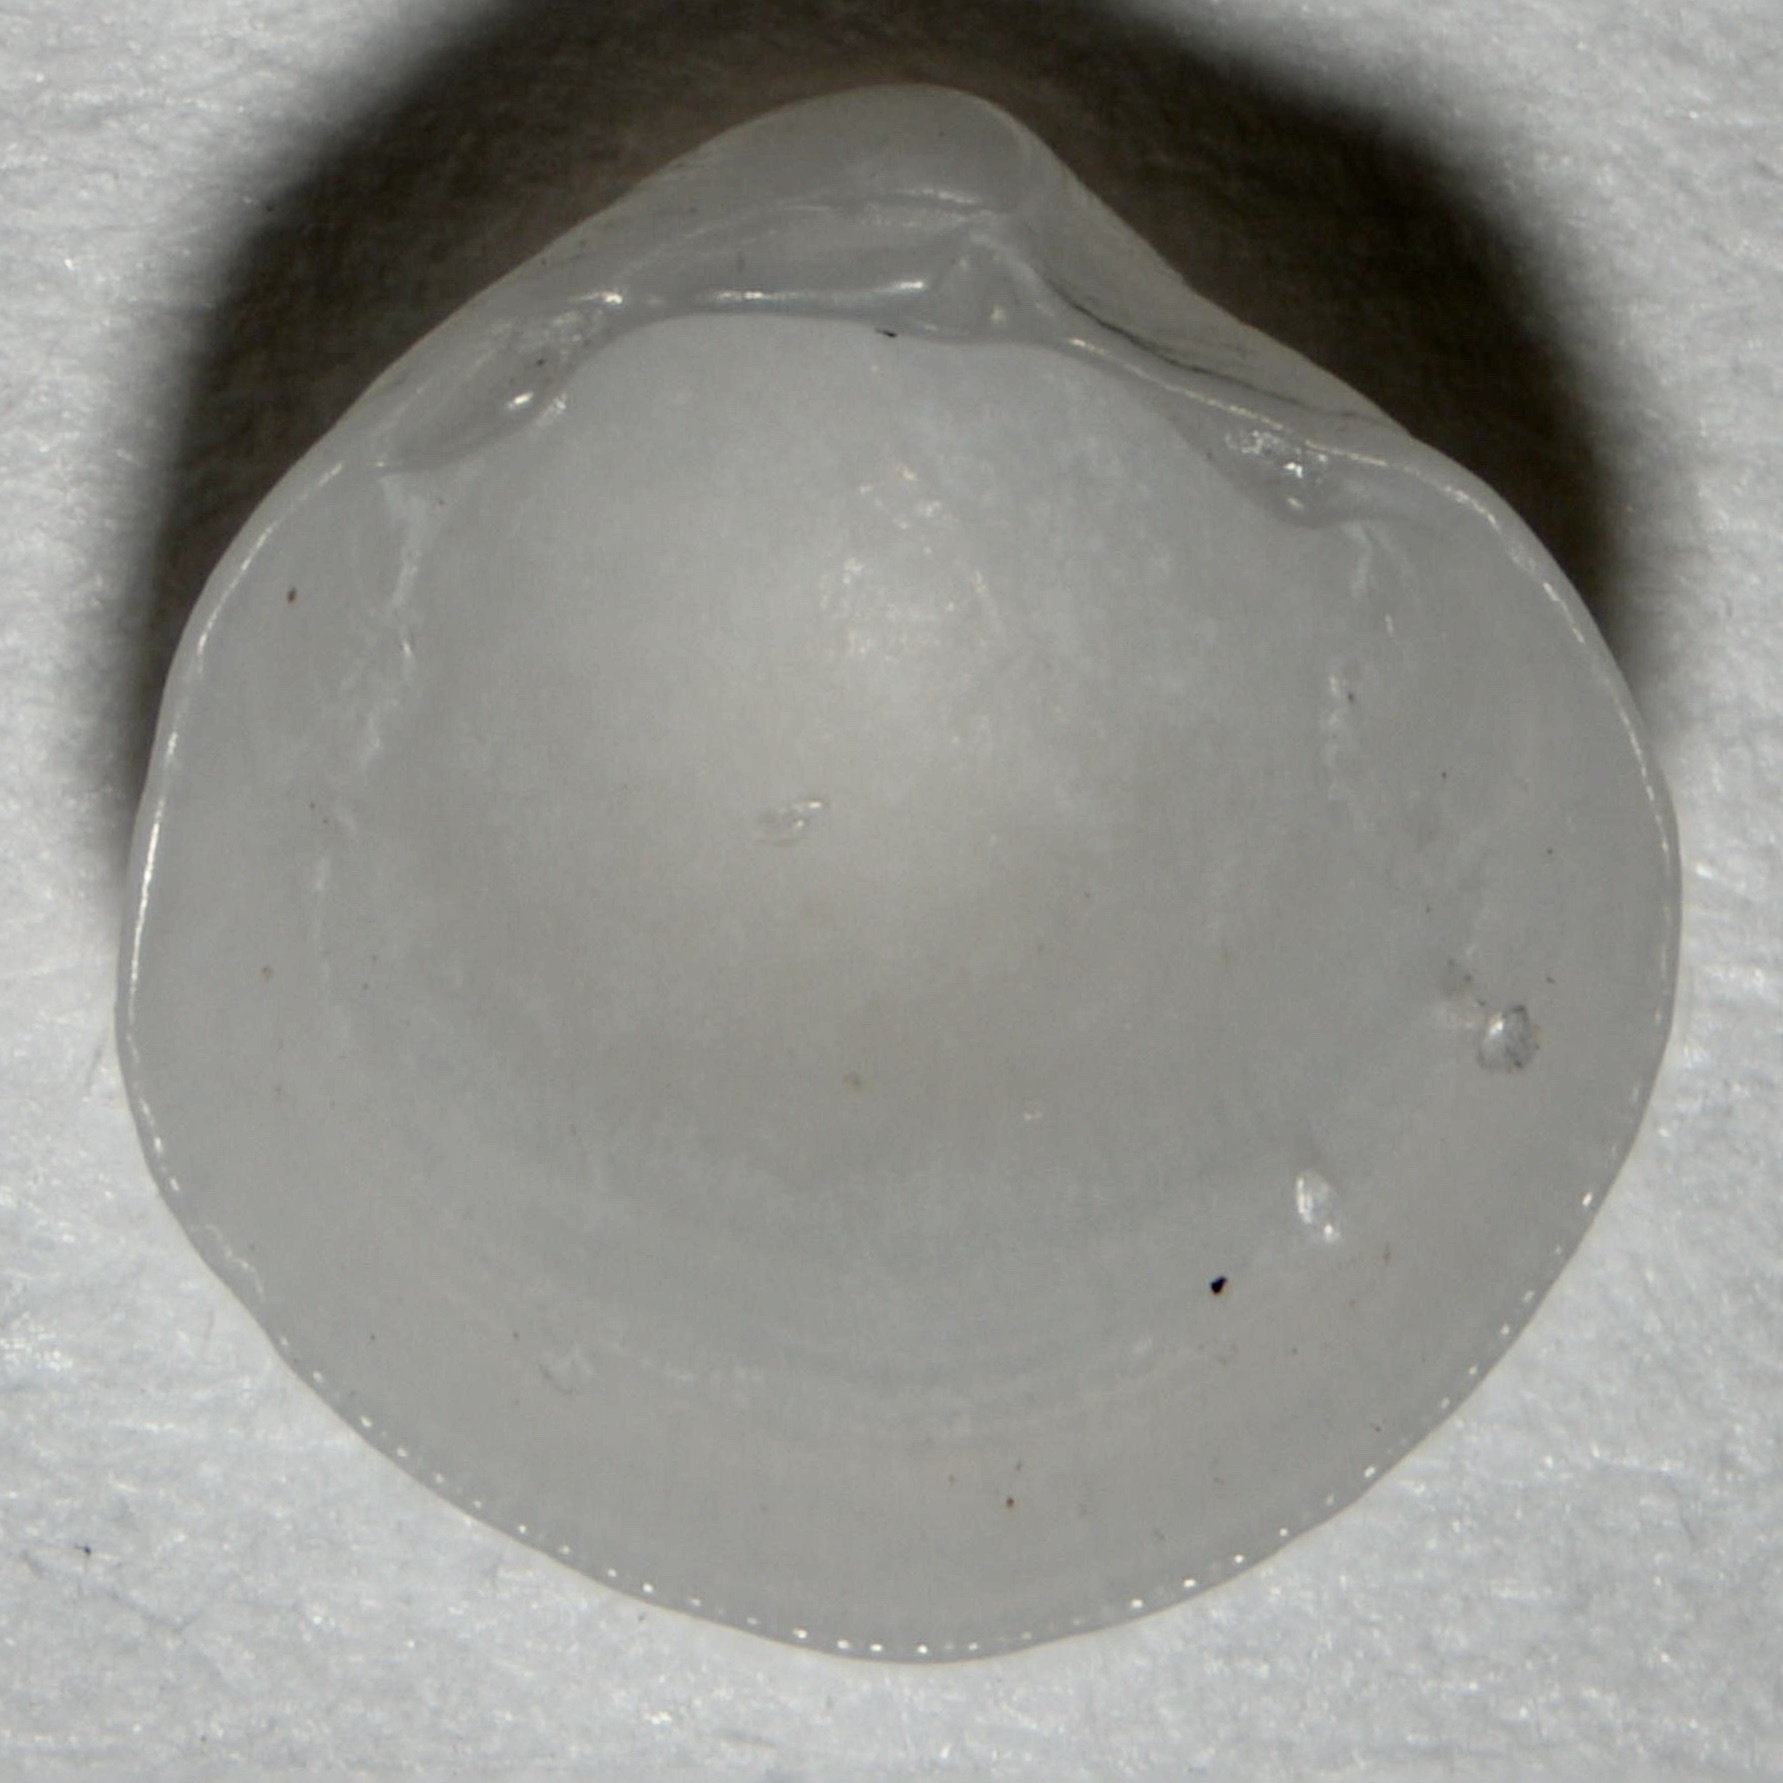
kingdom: Animalia
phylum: Mollusca
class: Bivalvia
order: Lucinida
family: Lucinidae
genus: Parvilucina
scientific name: Parvilucina crenella
